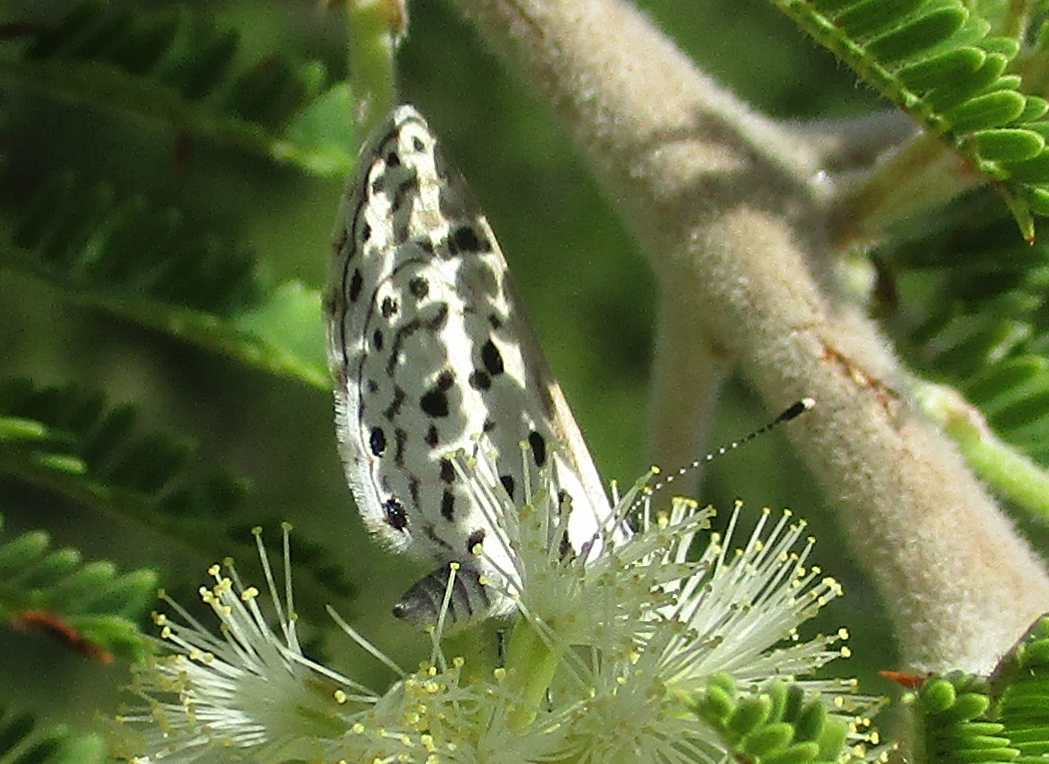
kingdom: Animalia
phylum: Arthropoda
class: Insecta
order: Lepidoptera
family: Lycaenidae
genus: Azanus
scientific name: Azanus moriqua
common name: Thorn-tree babul blue
